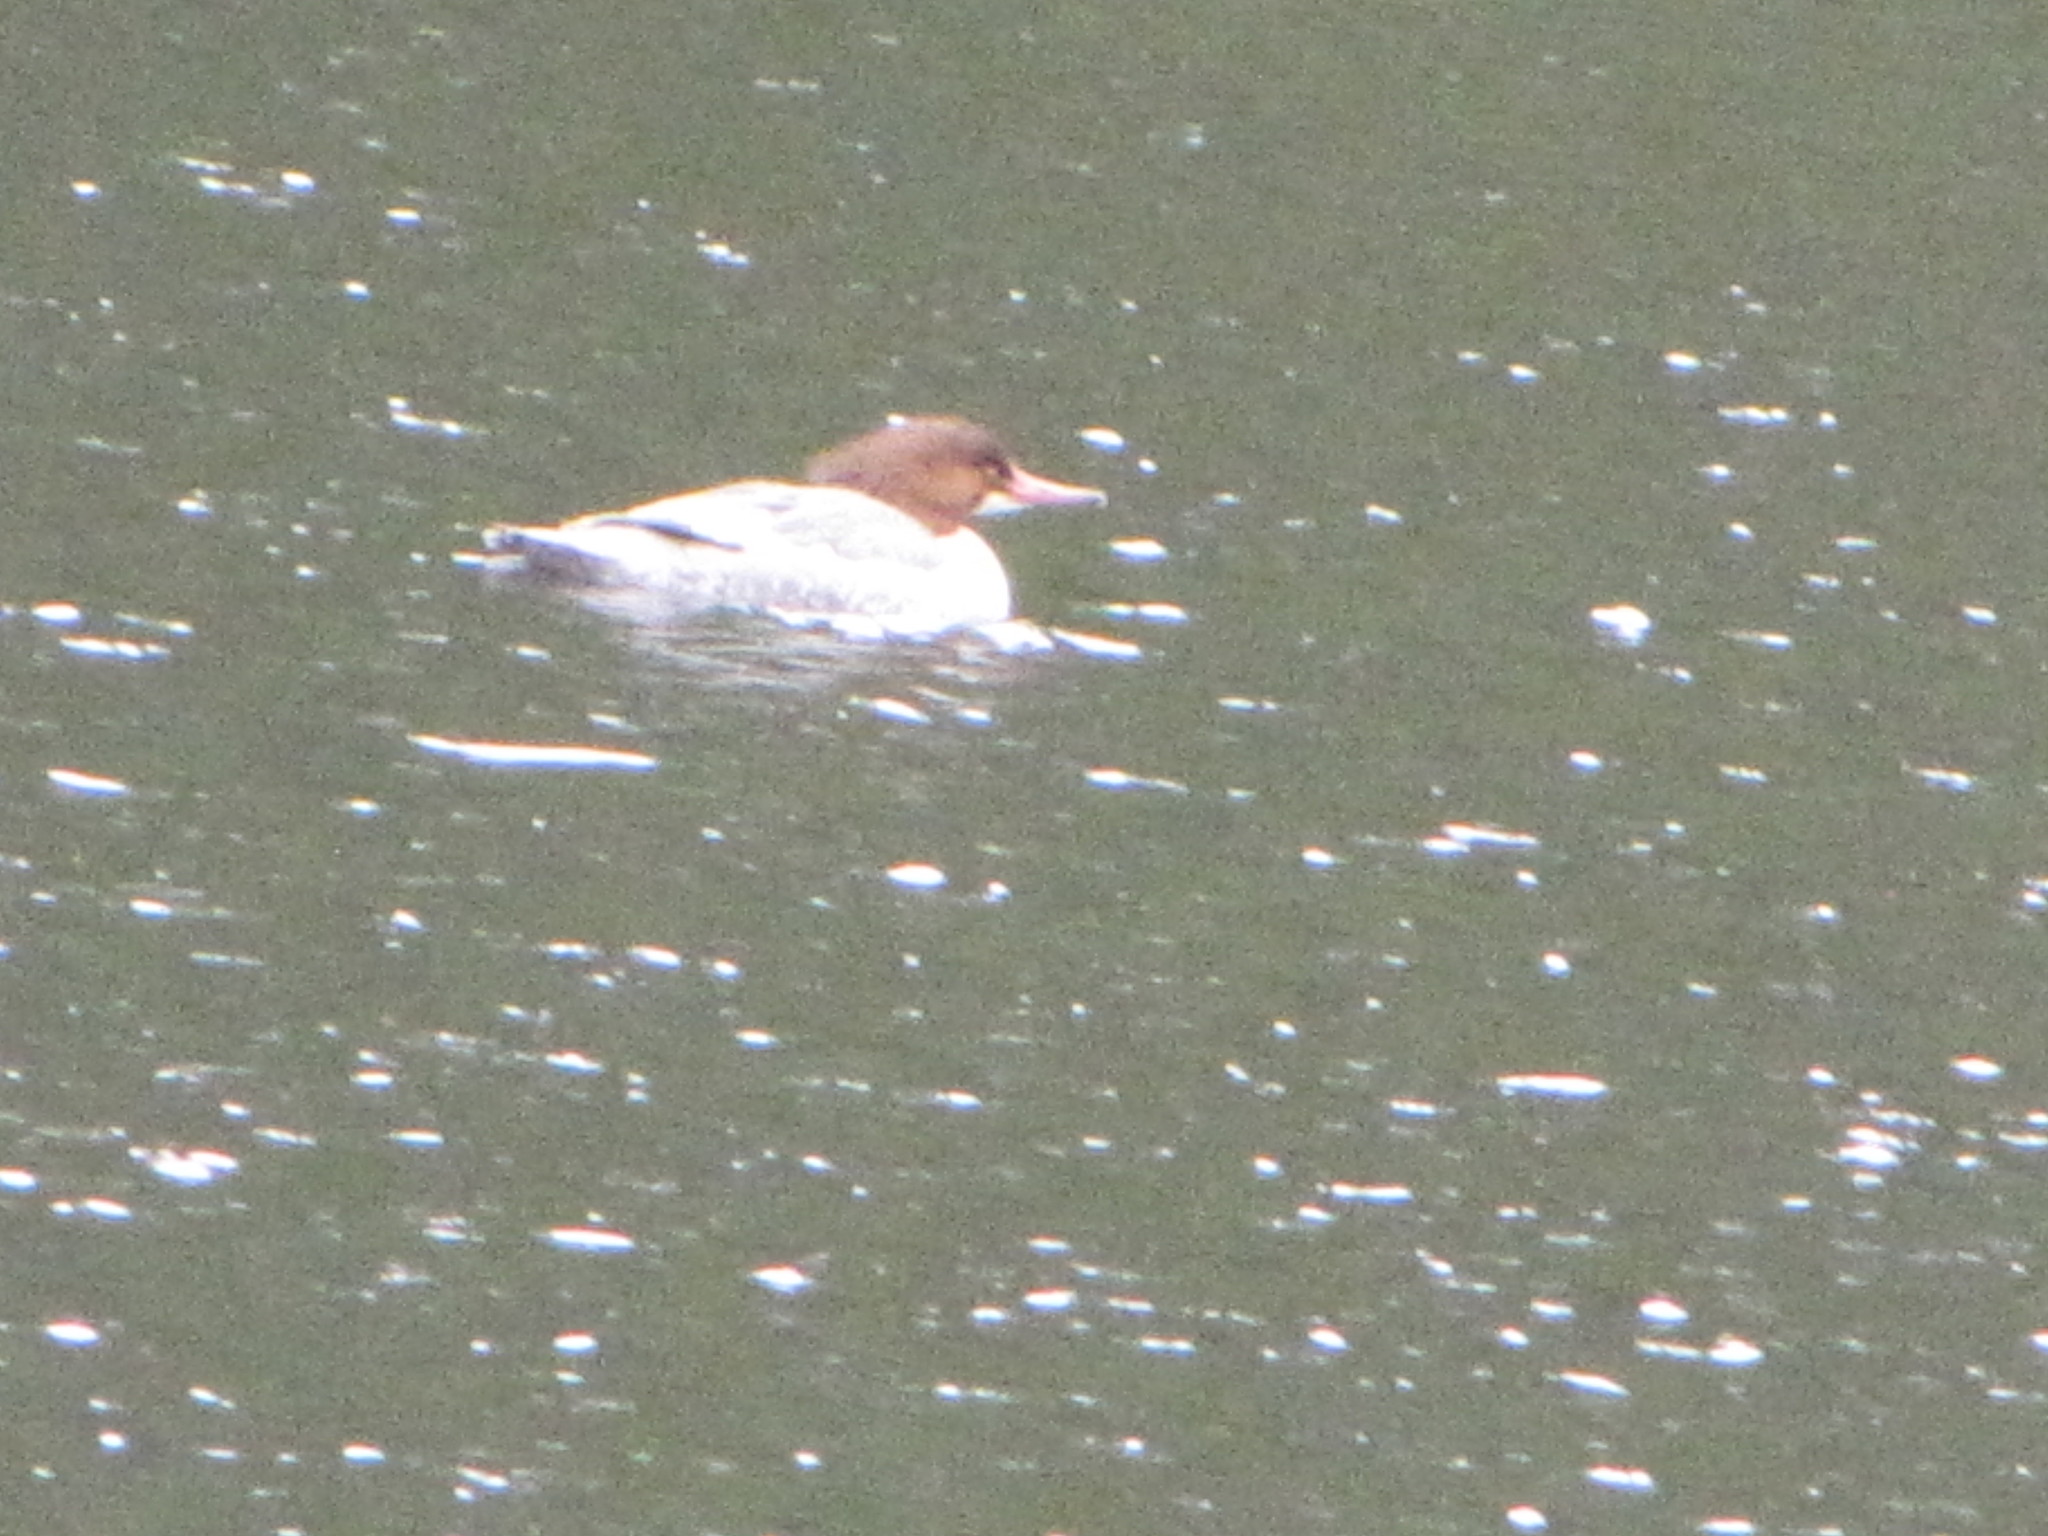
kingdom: Animalia
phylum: Chordata
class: Aves
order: Anseriformes
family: Anatidae
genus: Mergus
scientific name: Mergus merganser
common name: Common merganser
